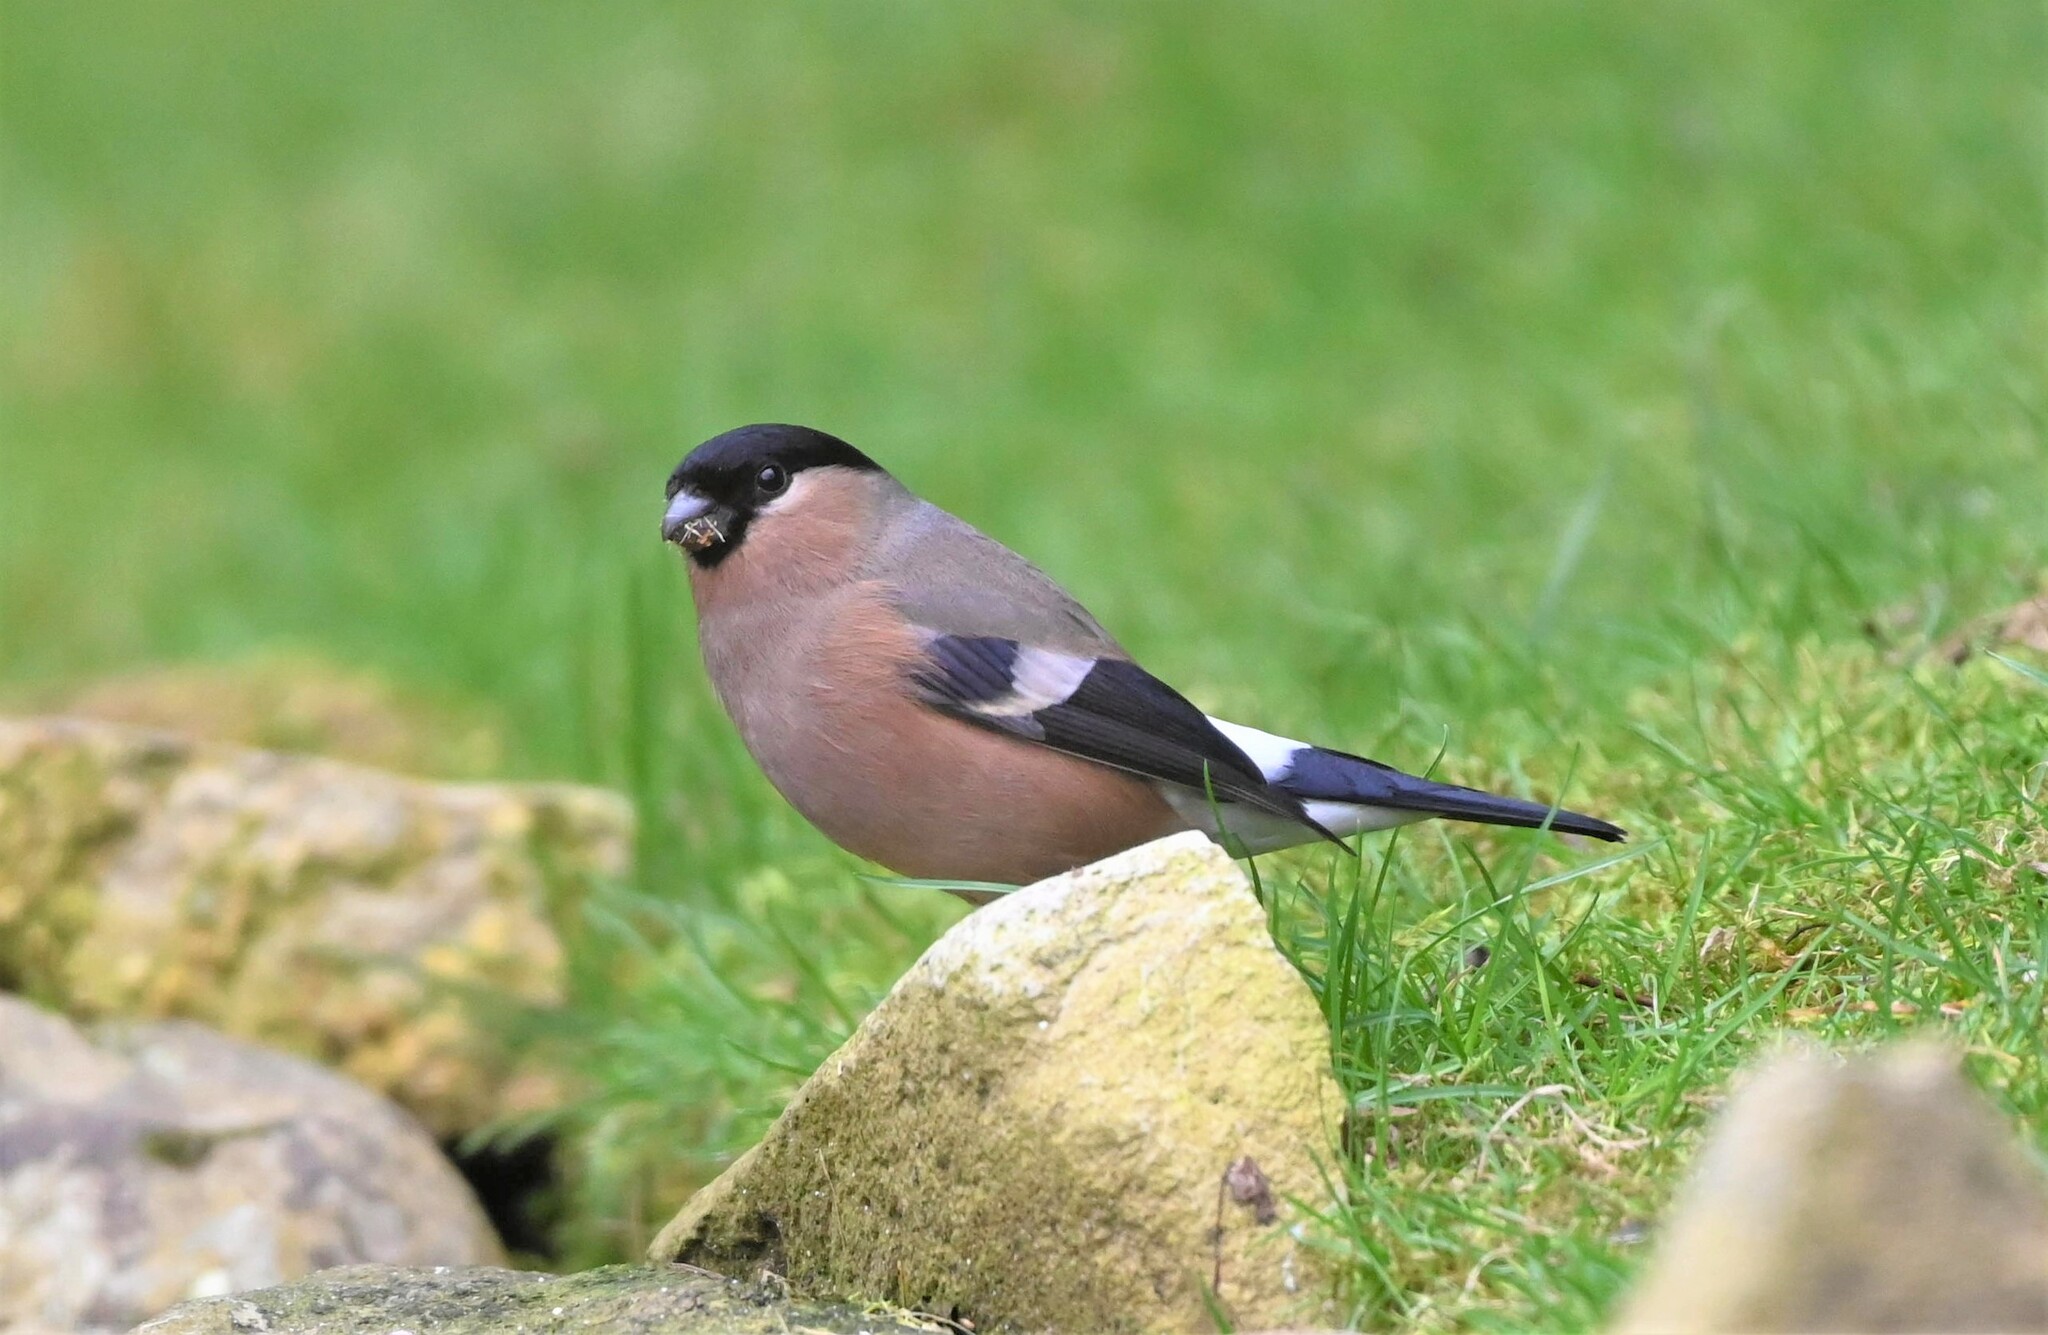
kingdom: Animalia
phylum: Chordata
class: Aves
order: Passeriformes
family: Fringillidae
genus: Pyrrhula
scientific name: Pyrrhula pyrrhula
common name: Eurasian bullfinch
